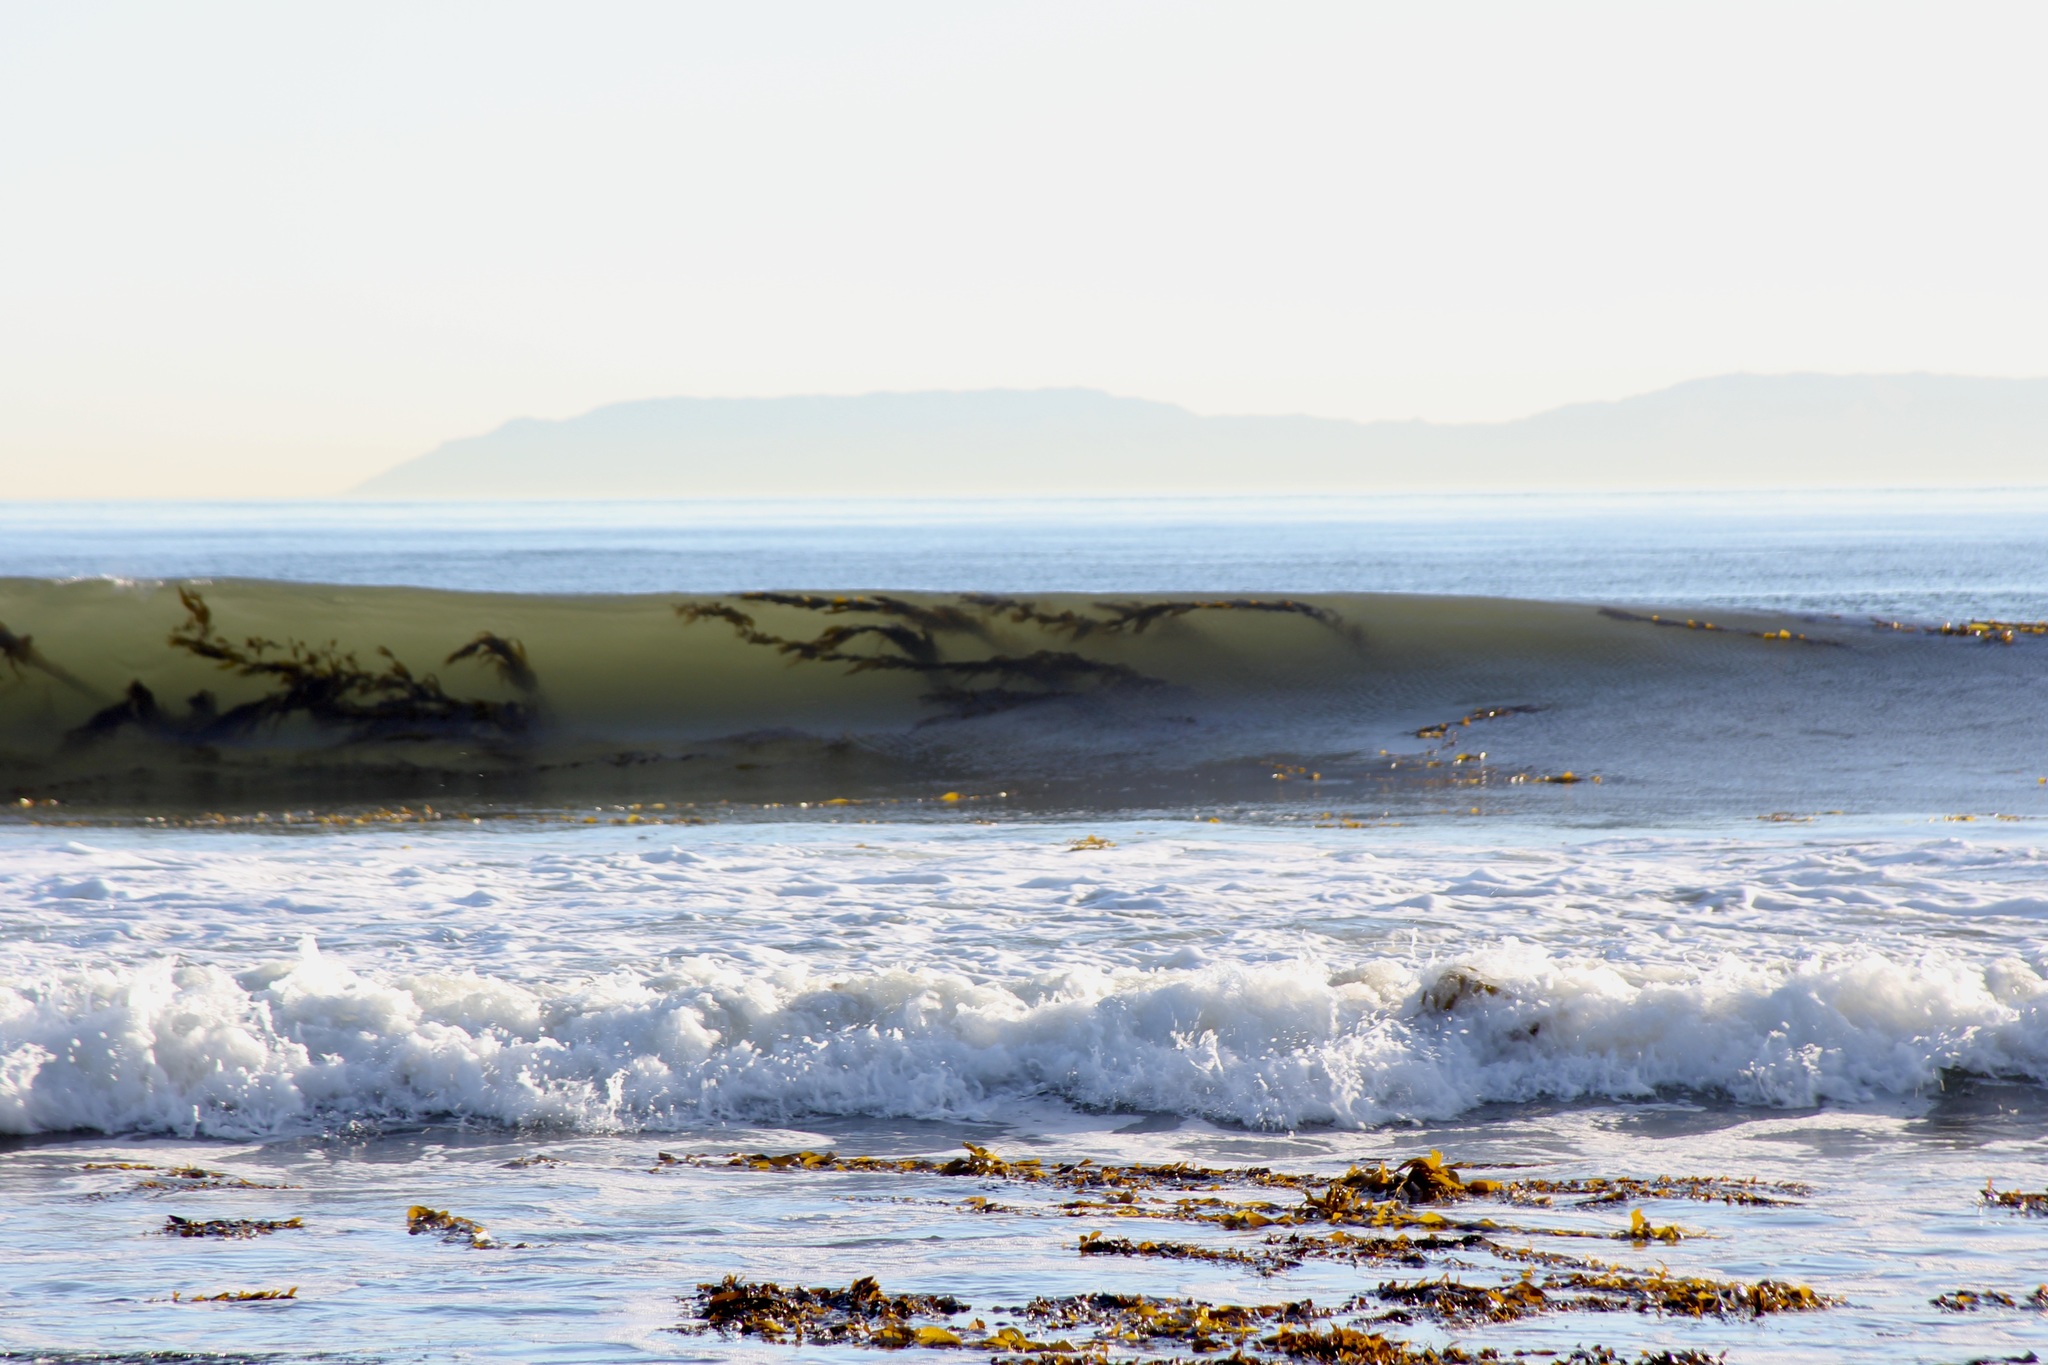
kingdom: Chromista
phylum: Ochrophyta
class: Phaeophyceae
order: Laminariales
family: Laminariaceae
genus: Macrocystis
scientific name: Macrocystis pyrifera
